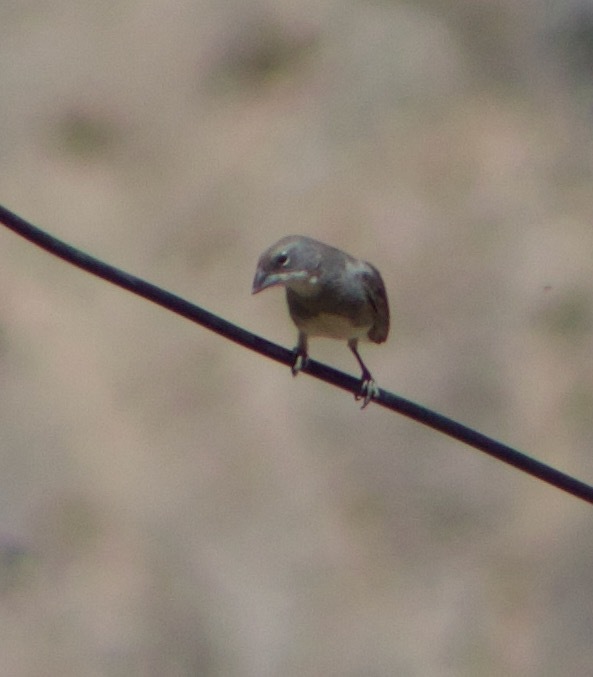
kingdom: Animalia
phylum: Chordata
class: Aves
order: Passeriformes
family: Thraupidae
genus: Diuca
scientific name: Diuca diuca
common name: Common diuca finch
